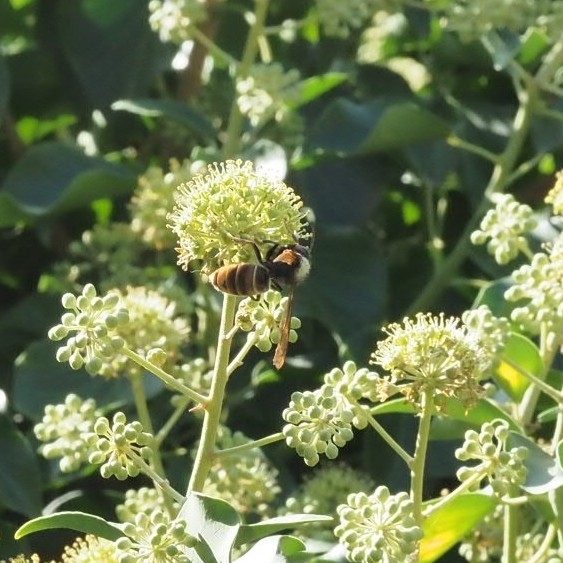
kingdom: Animalia
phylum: Arthropoda
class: Insecta
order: Hymenoptera
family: Vespidae
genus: Vespa
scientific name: Vespa velutina
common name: Asian hornet
